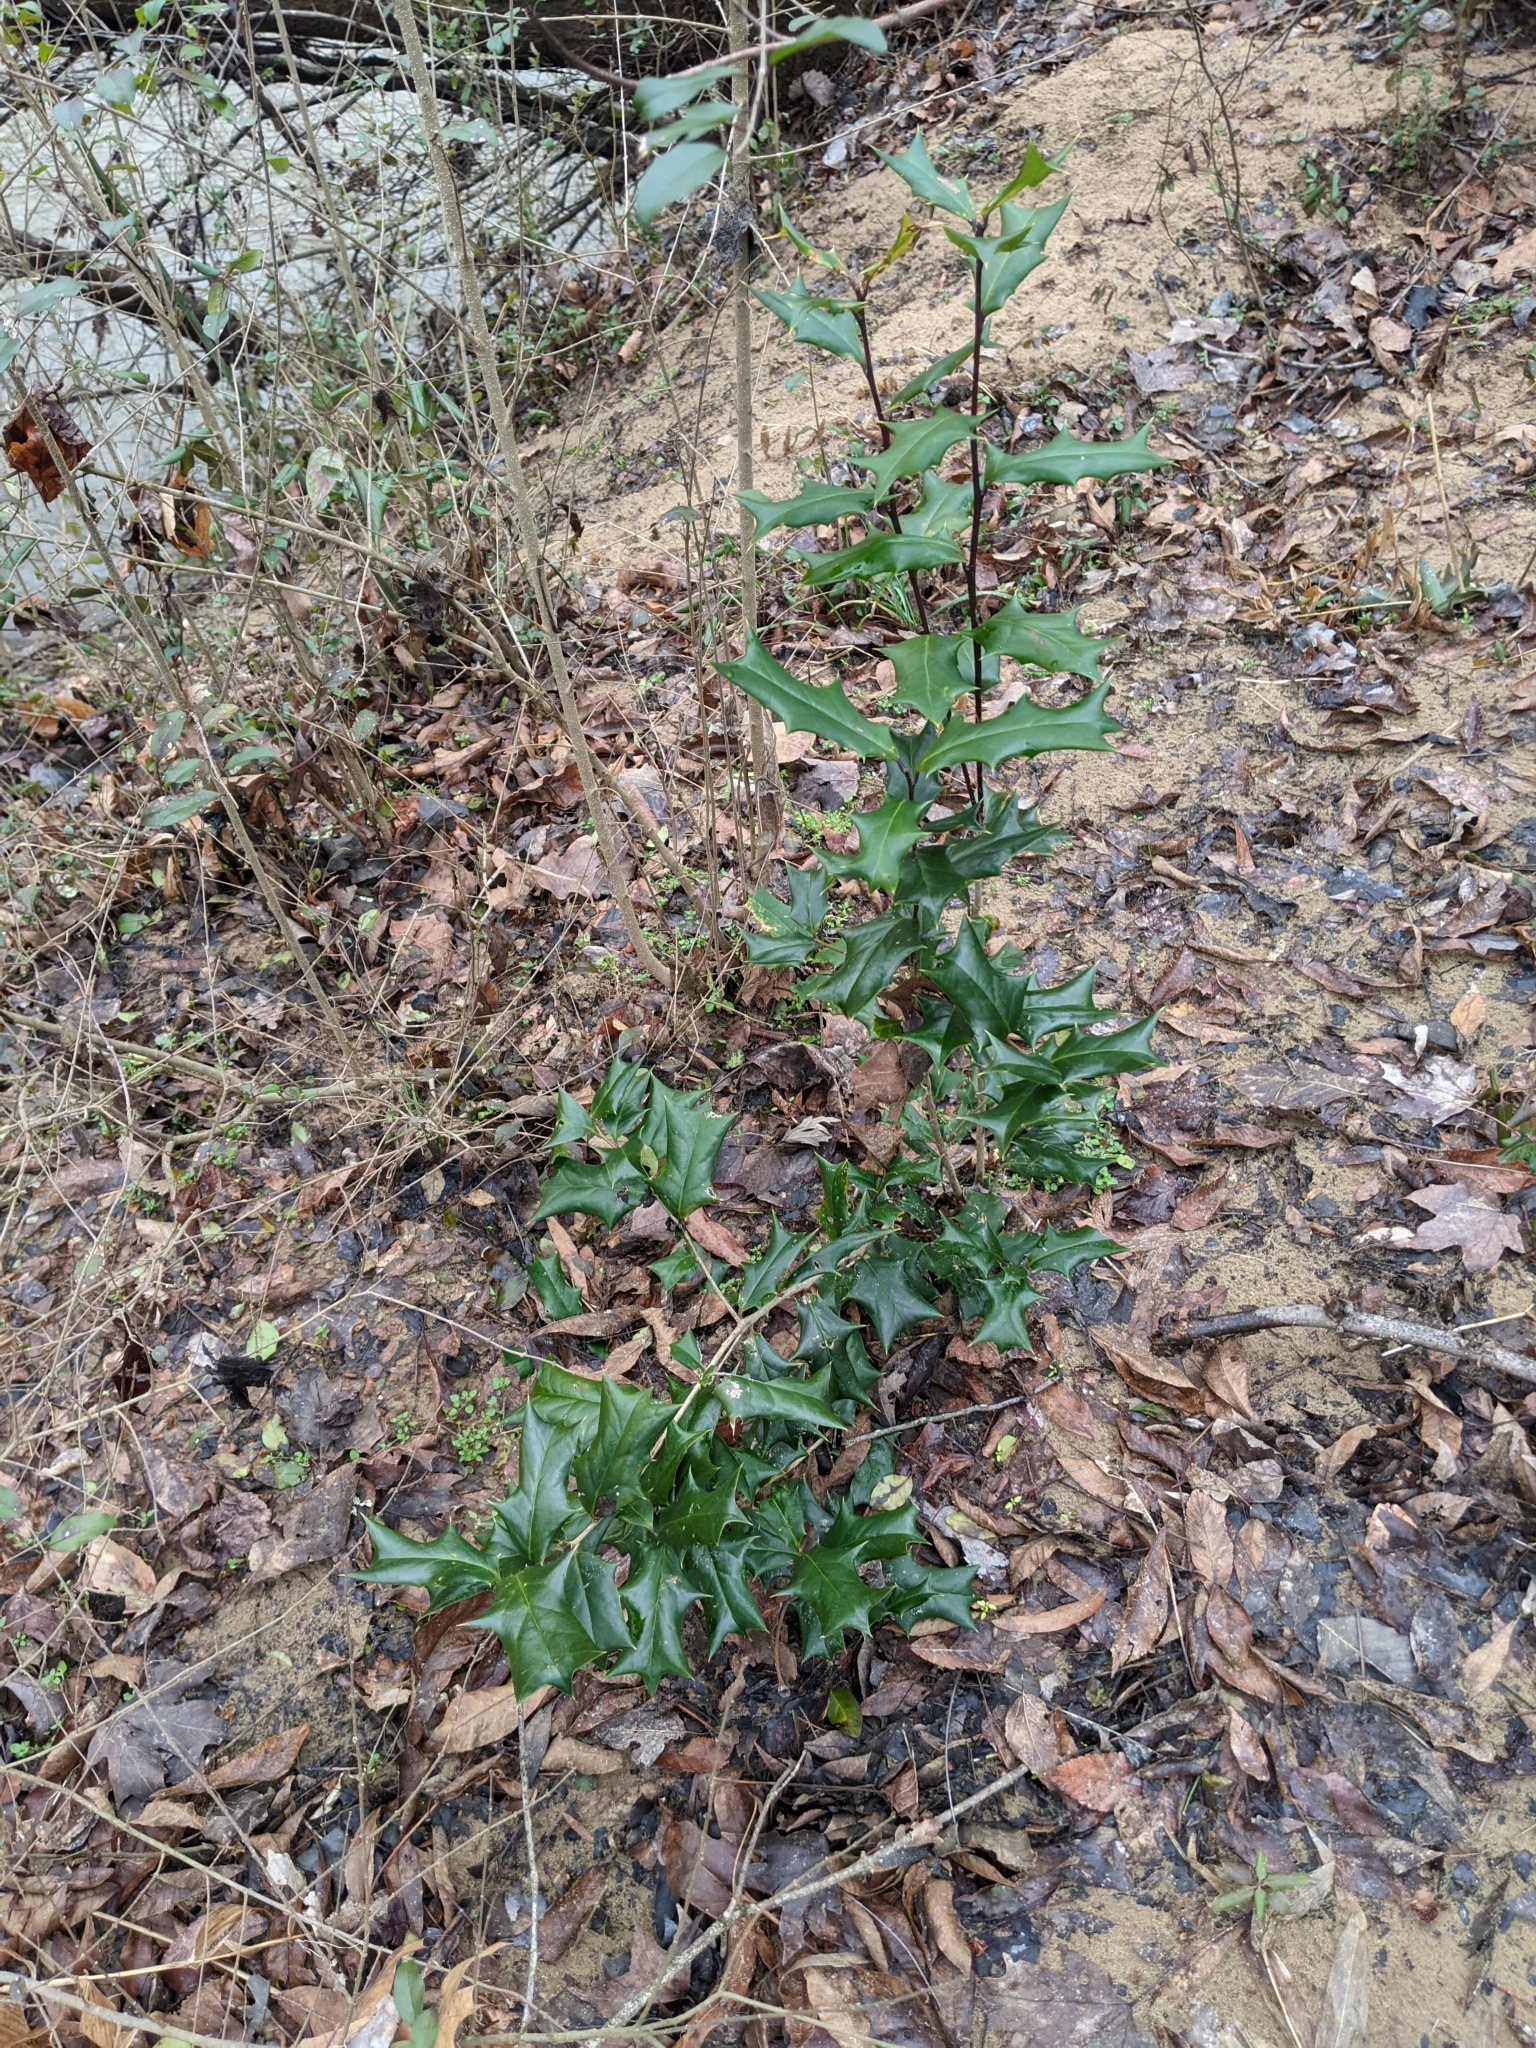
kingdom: Plantae
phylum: Tracheophyta
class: Magnoliopsida
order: Aquifoliales
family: Aquifoliaceae
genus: Ilex
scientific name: Ilex cornuta
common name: Chinese holly
